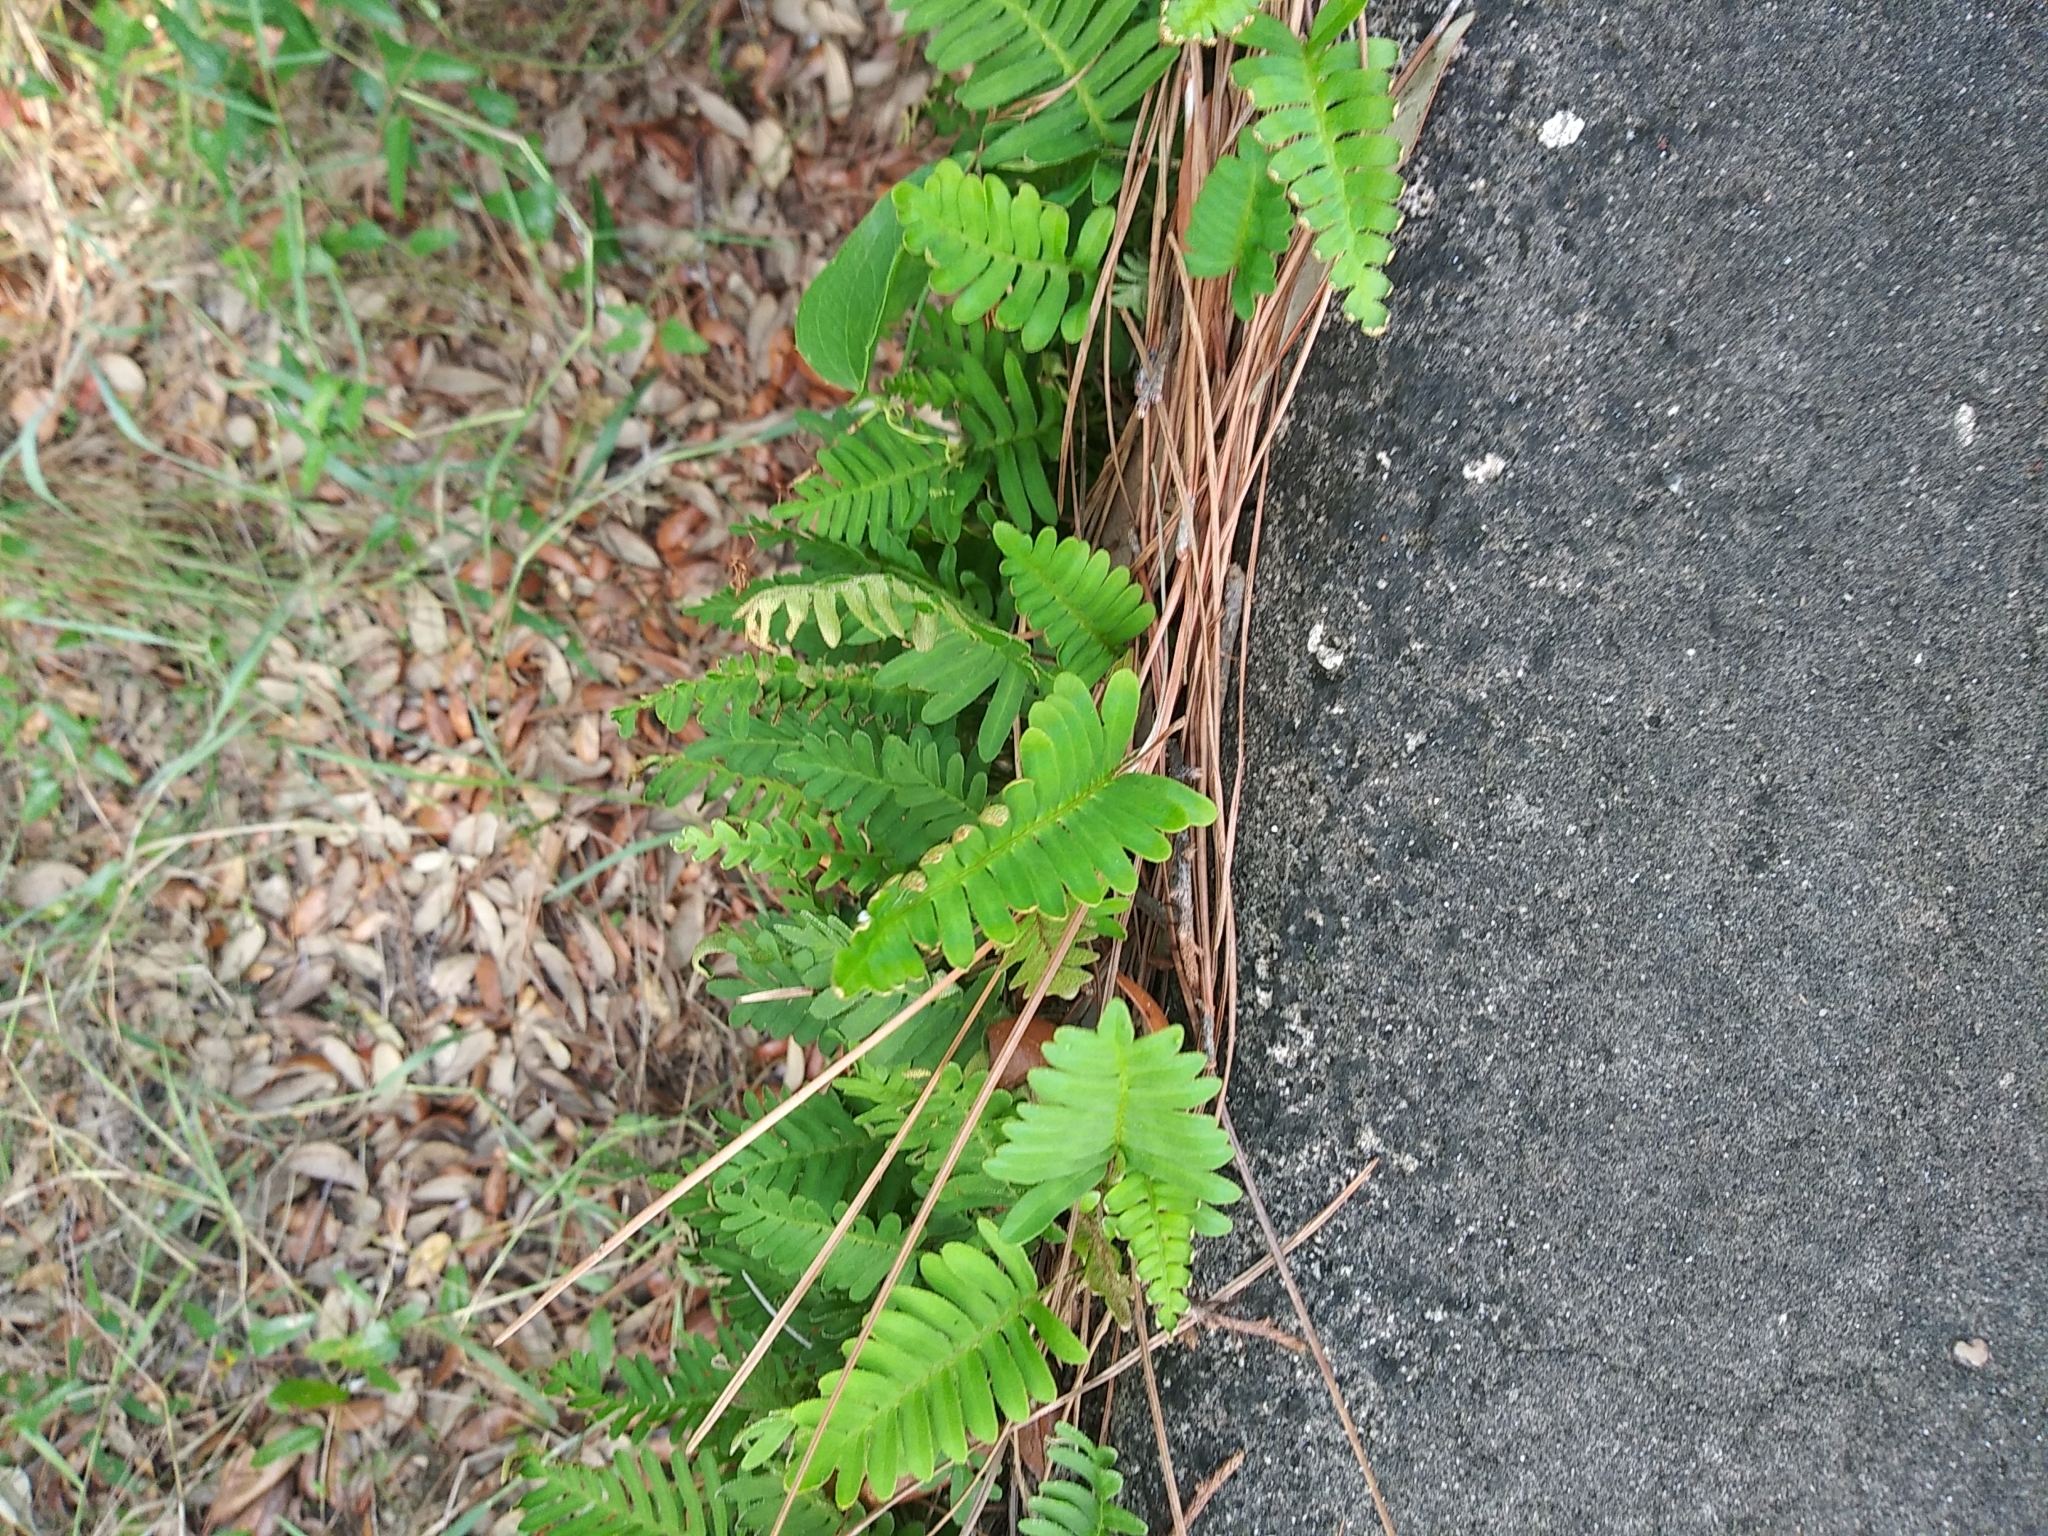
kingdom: Plantae
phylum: Tracheophyta
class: Polypodiopsida
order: Polypodiales
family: Polypodiaceae
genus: Pleopeltis
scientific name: Pleopeltis michauxiana
